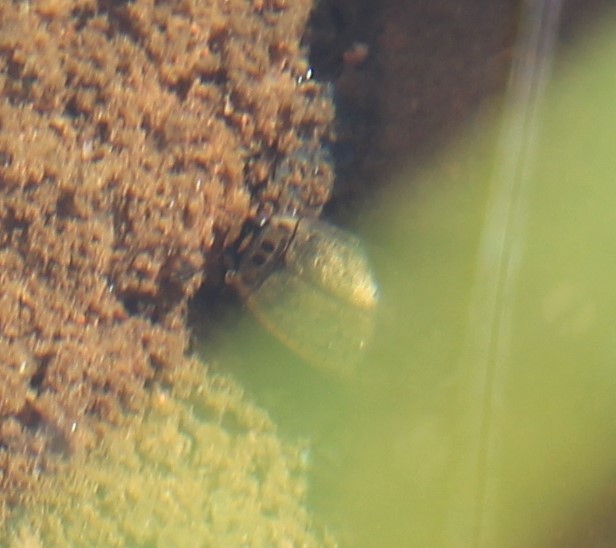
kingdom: Animalia
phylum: Arthropoda
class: Insecta
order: Coleoptera
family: Dytiscidae
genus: Rhantus
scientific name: Rhantus gutticollis
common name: Predaceous diving beetle
